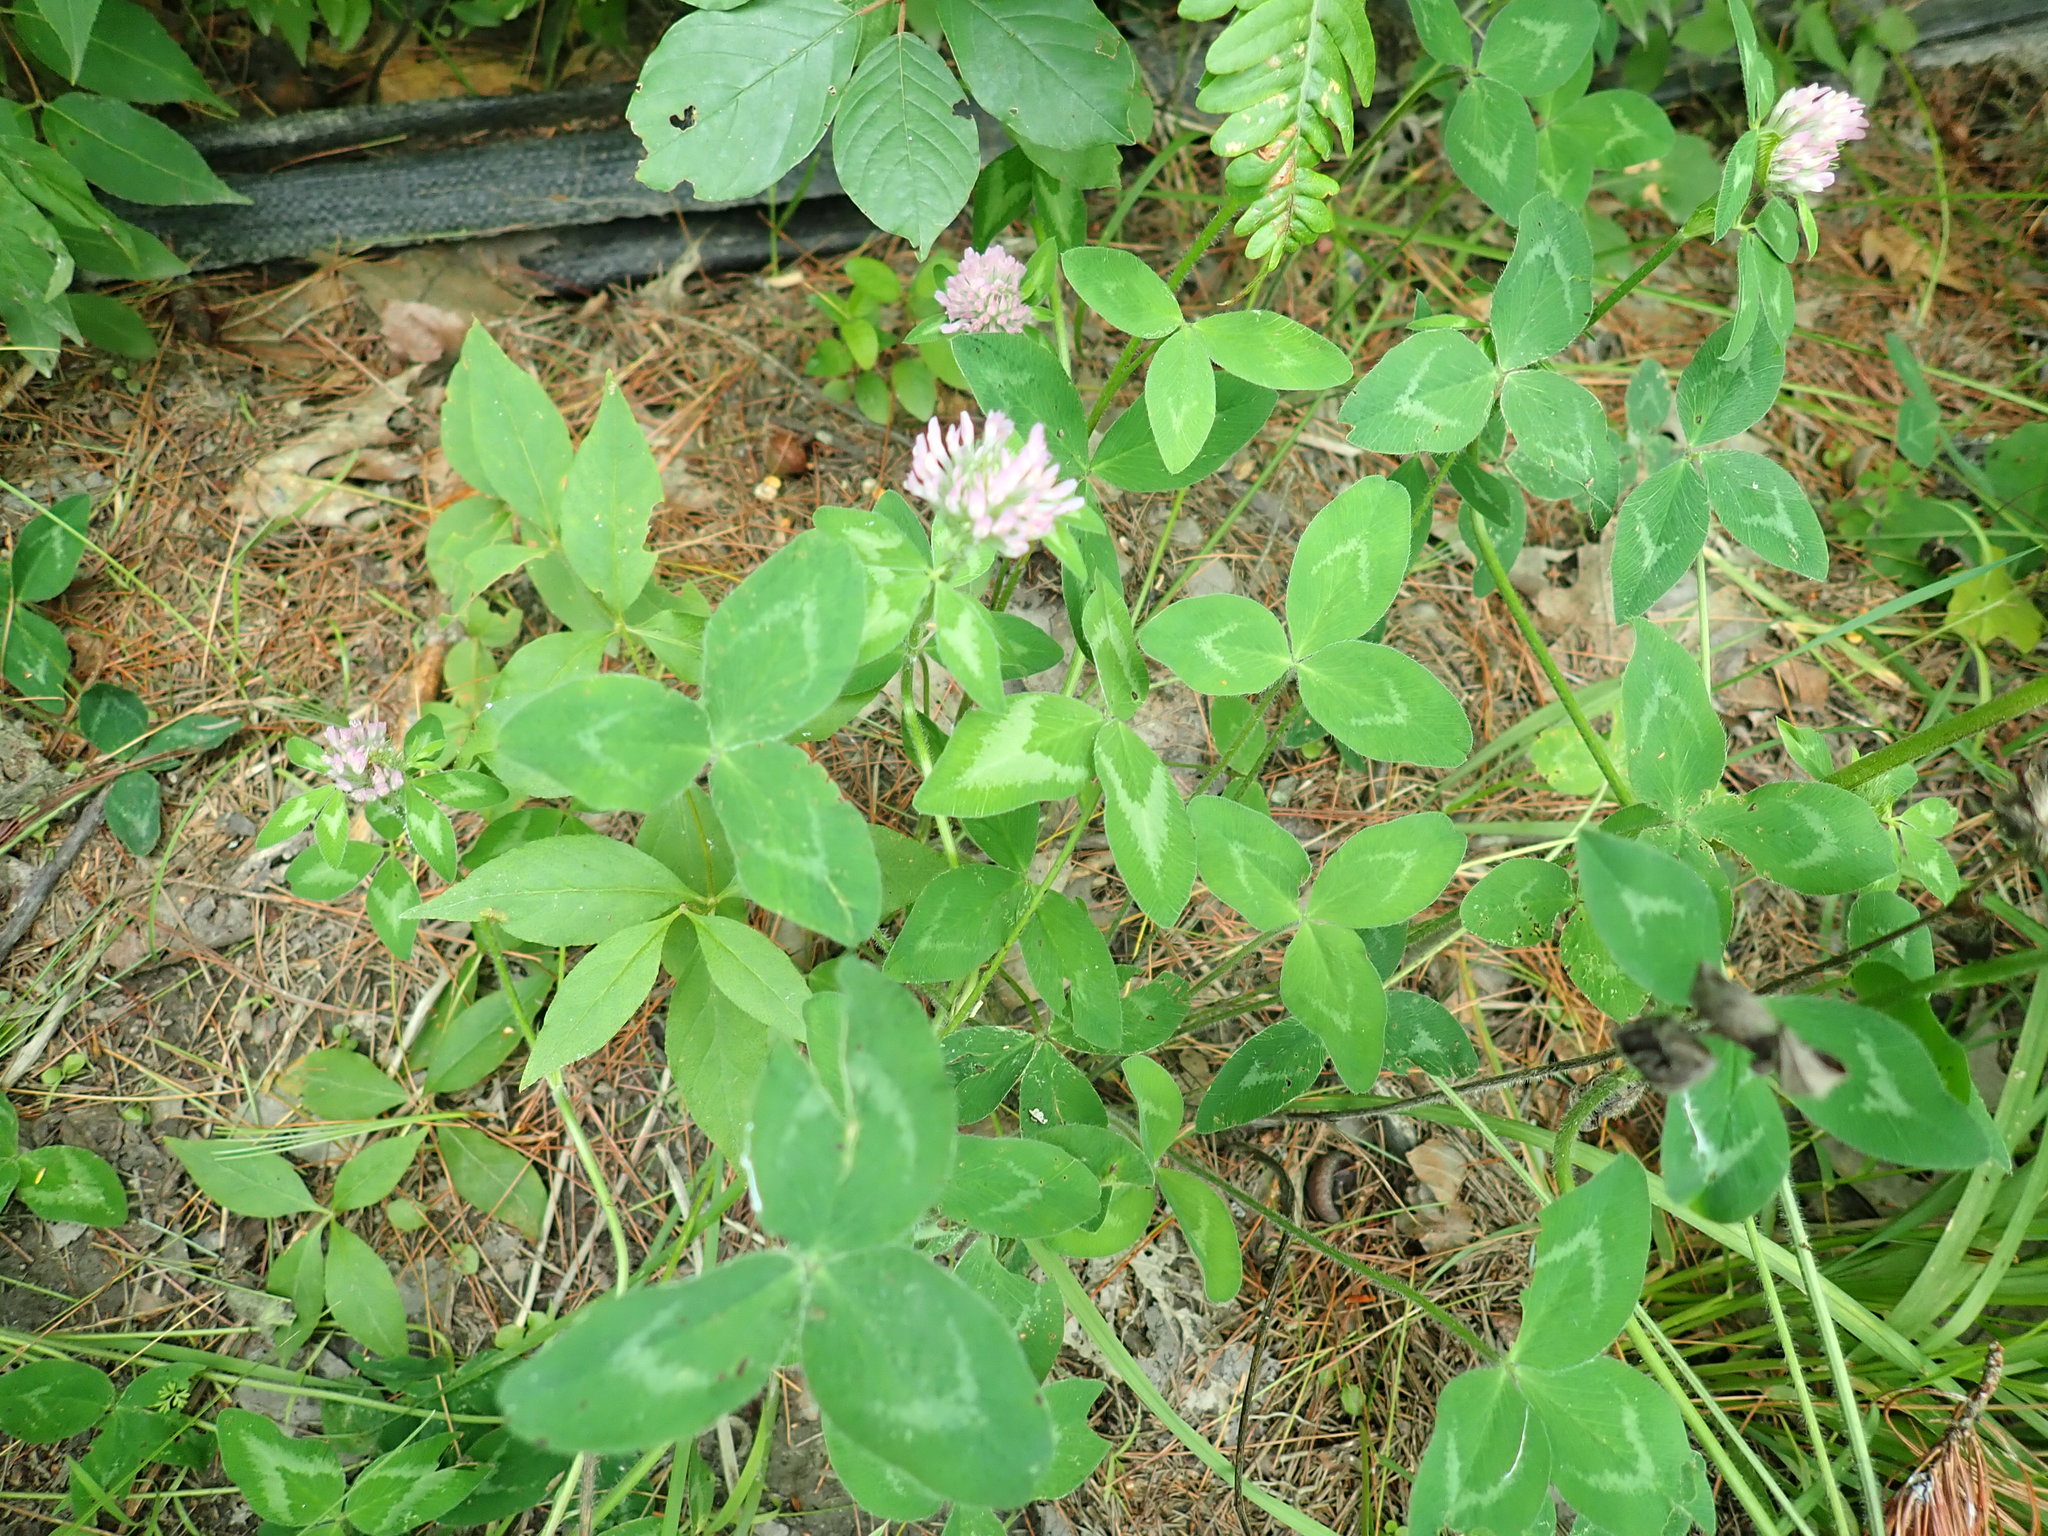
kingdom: Plantae
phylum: Tracheophyta
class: Magnoliopsida
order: Fabales
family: Fabaceae
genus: Trifolium
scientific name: Trifolium pratense
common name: Red clover
